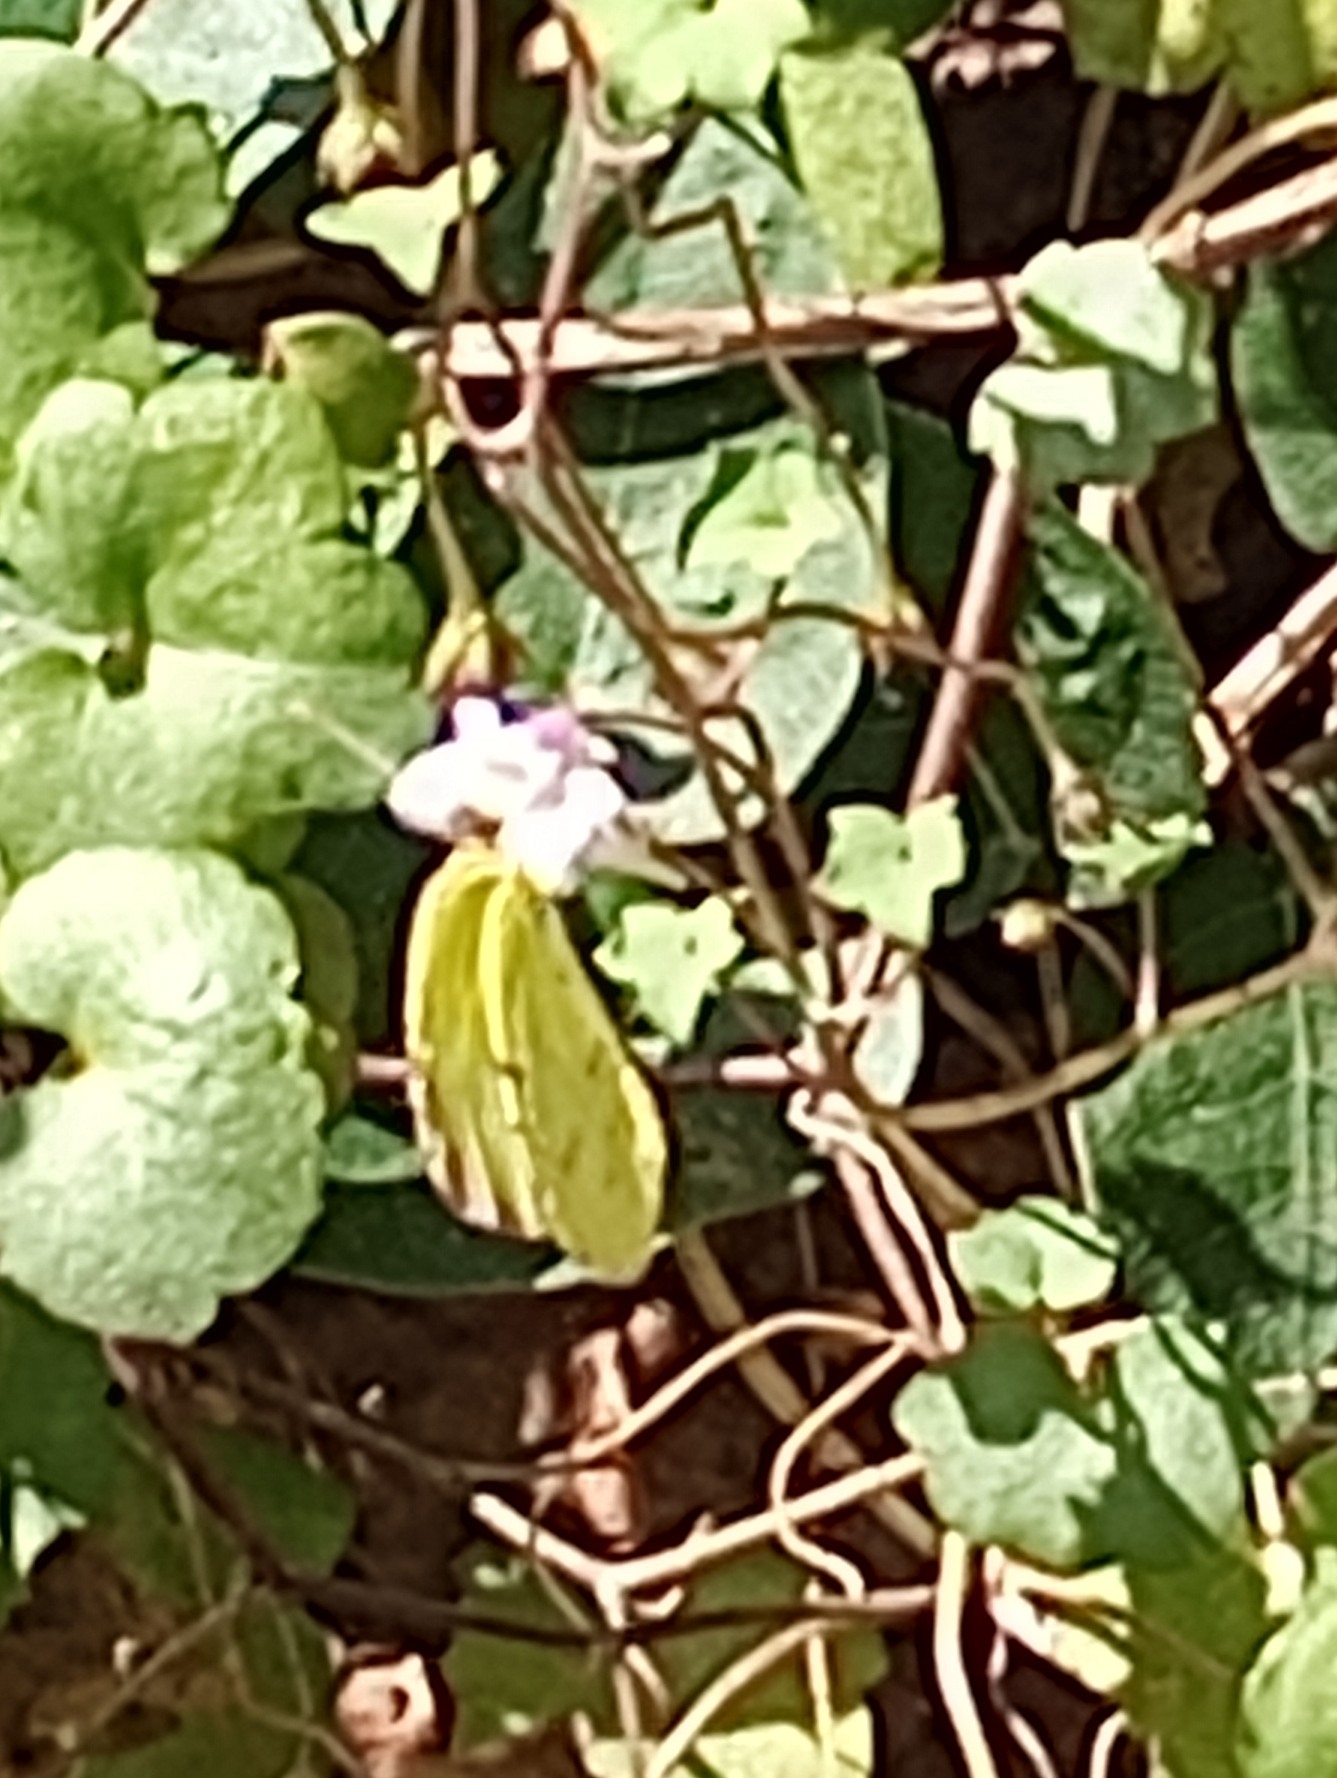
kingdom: Animalia
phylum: Arthropoda
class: Insecta
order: Lepidoptera
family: Pieridae
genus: Teriocolias
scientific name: Teriocolias
